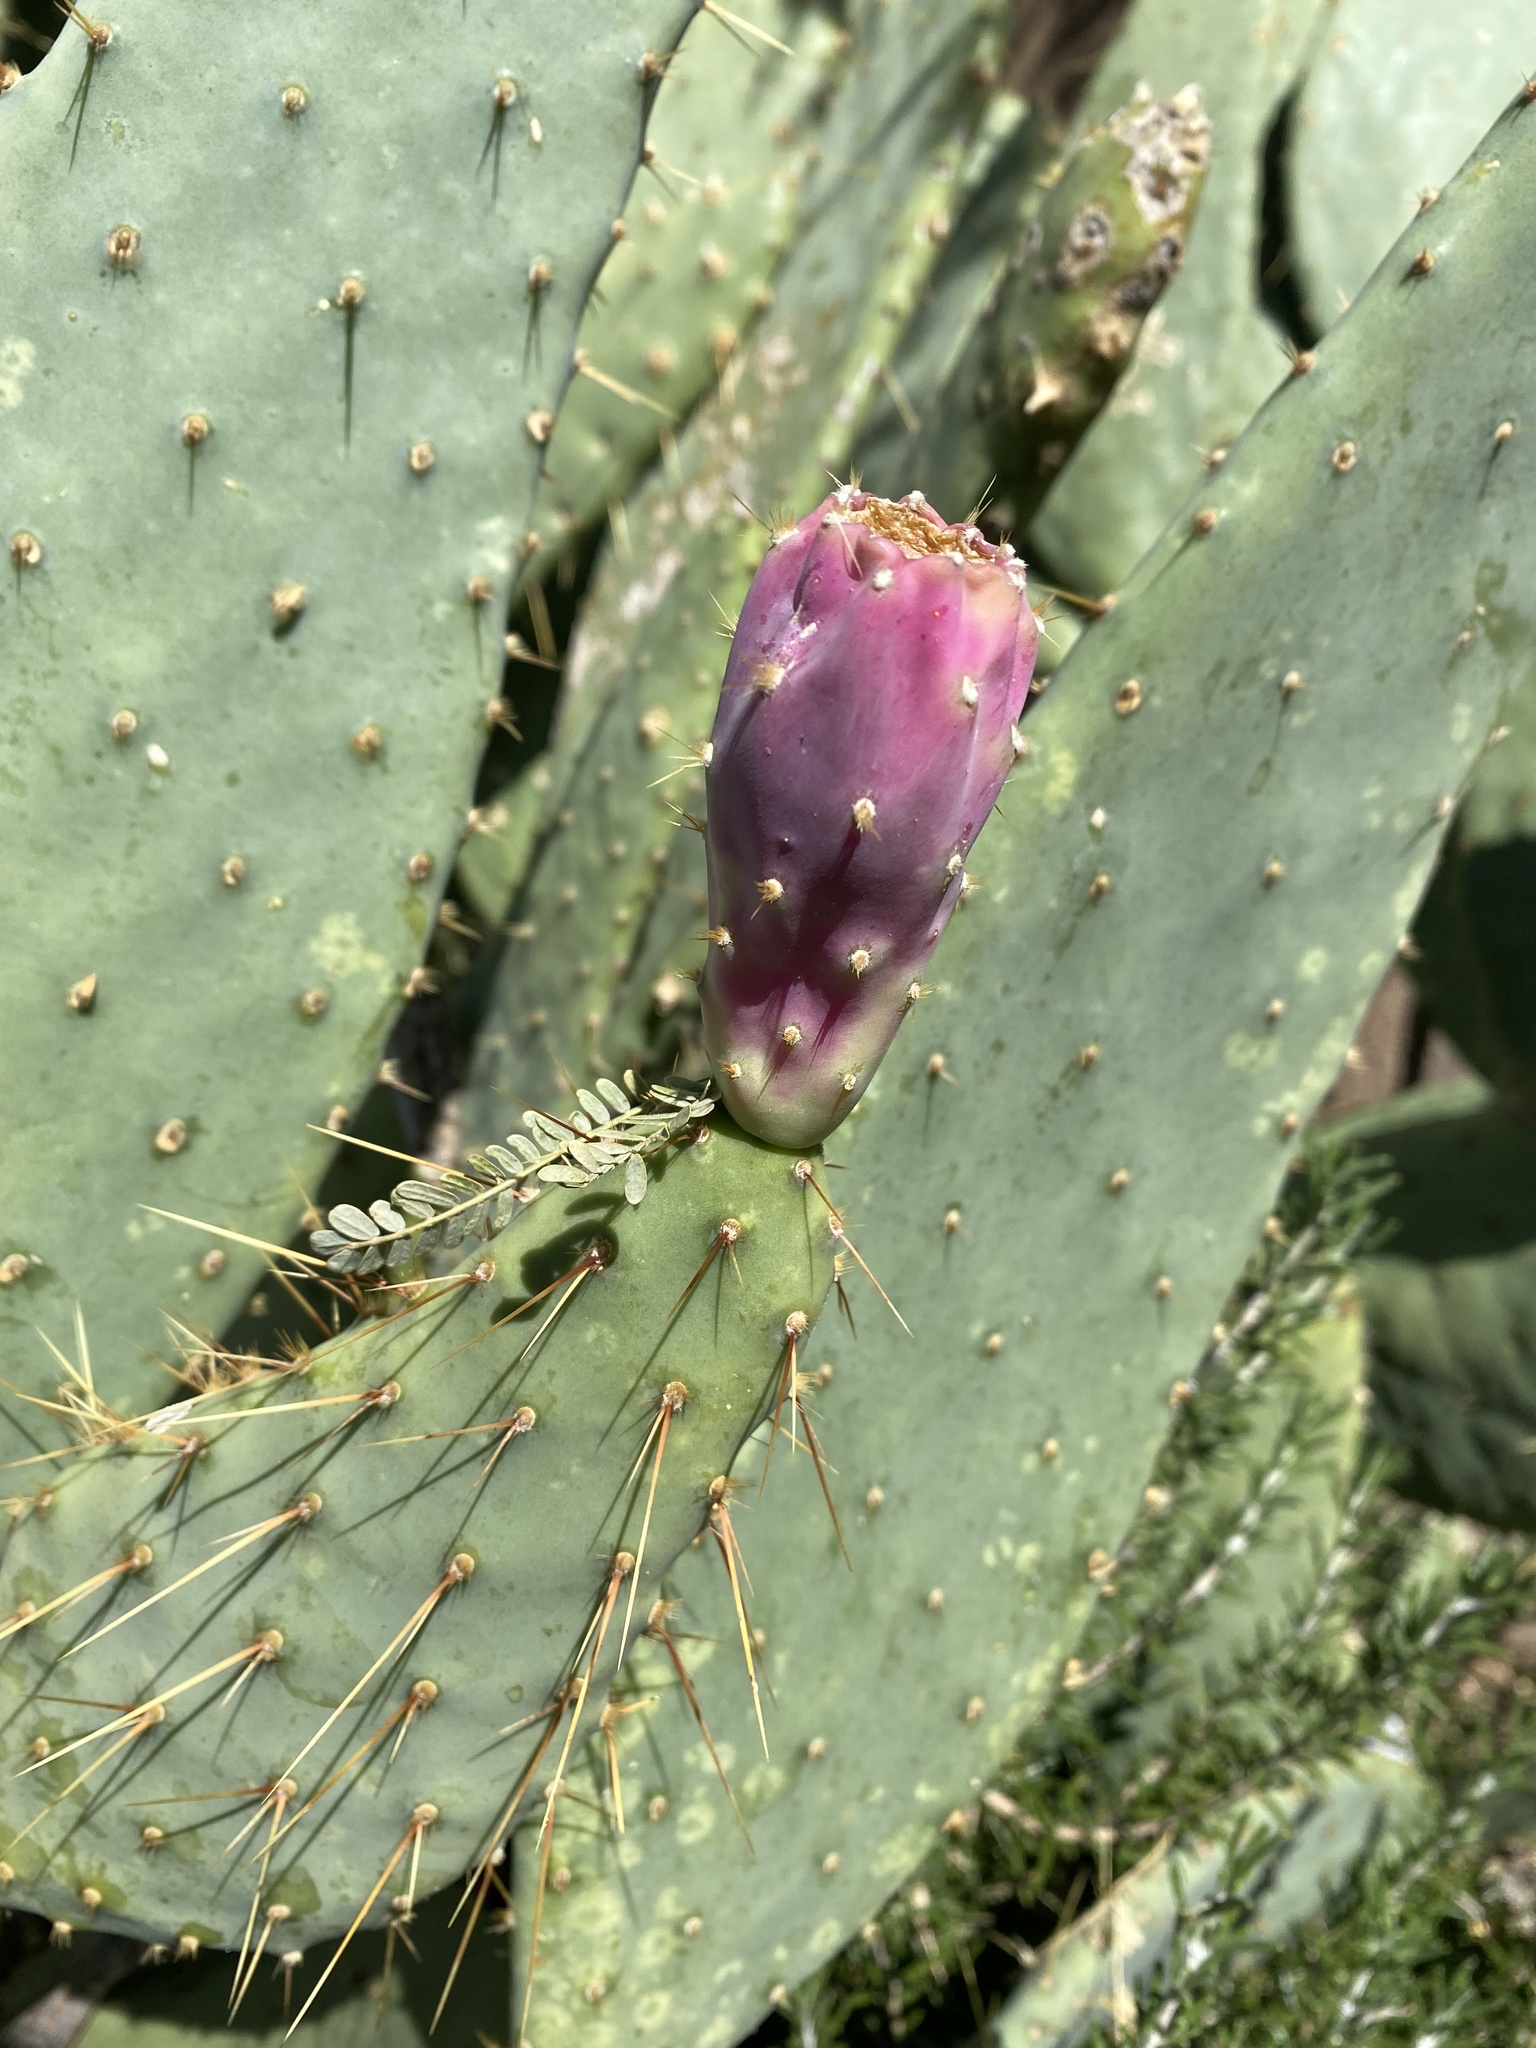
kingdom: Plantae
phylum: Tracheophyta
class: Magnoliopsida
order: Caryophyllales
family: Cactaceae
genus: Opuntia
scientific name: Opuntia engelmannii
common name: Cactus-apple
